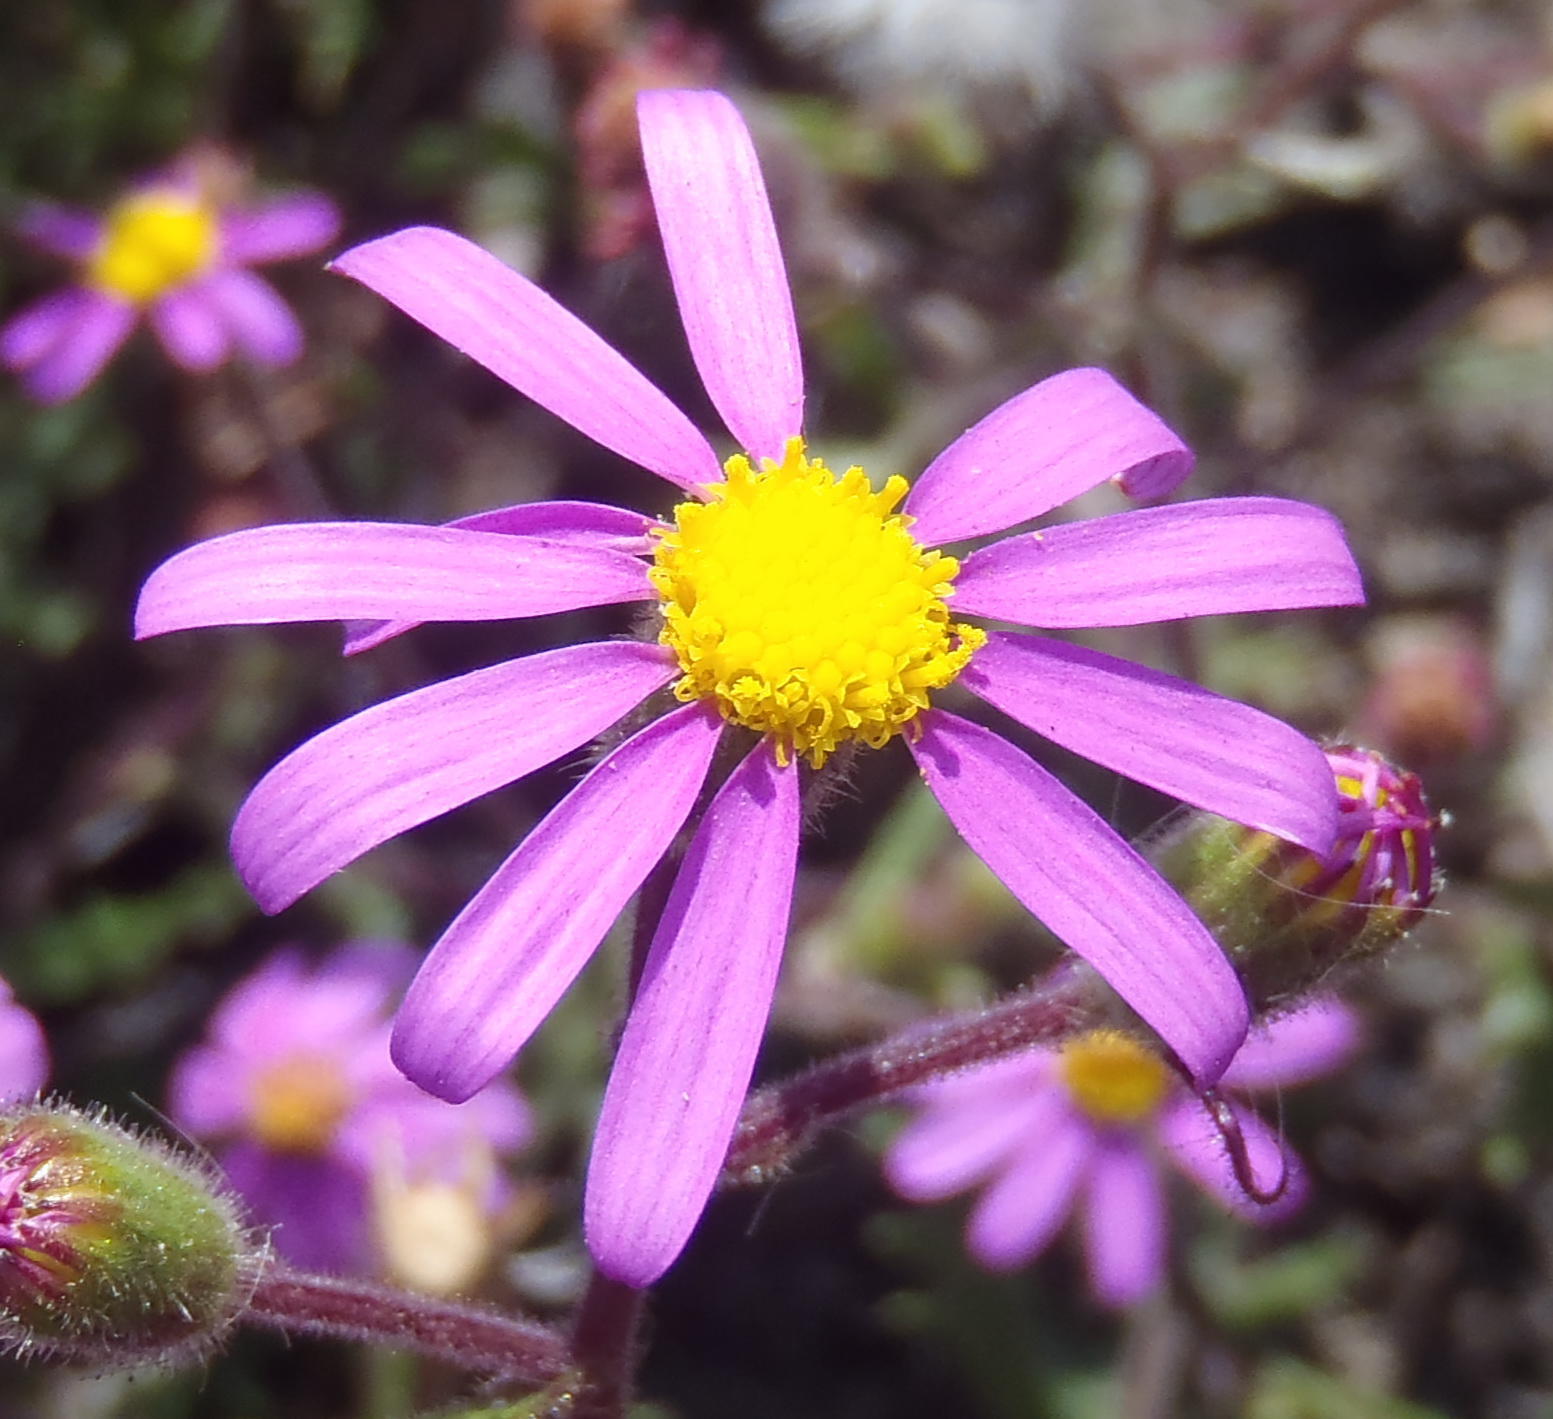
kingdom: Plantae
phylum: Tracheophyta
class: Magnoliopsida
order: Asterales
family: Asteraceae
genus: Senecio
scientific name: Senecio arenarius
